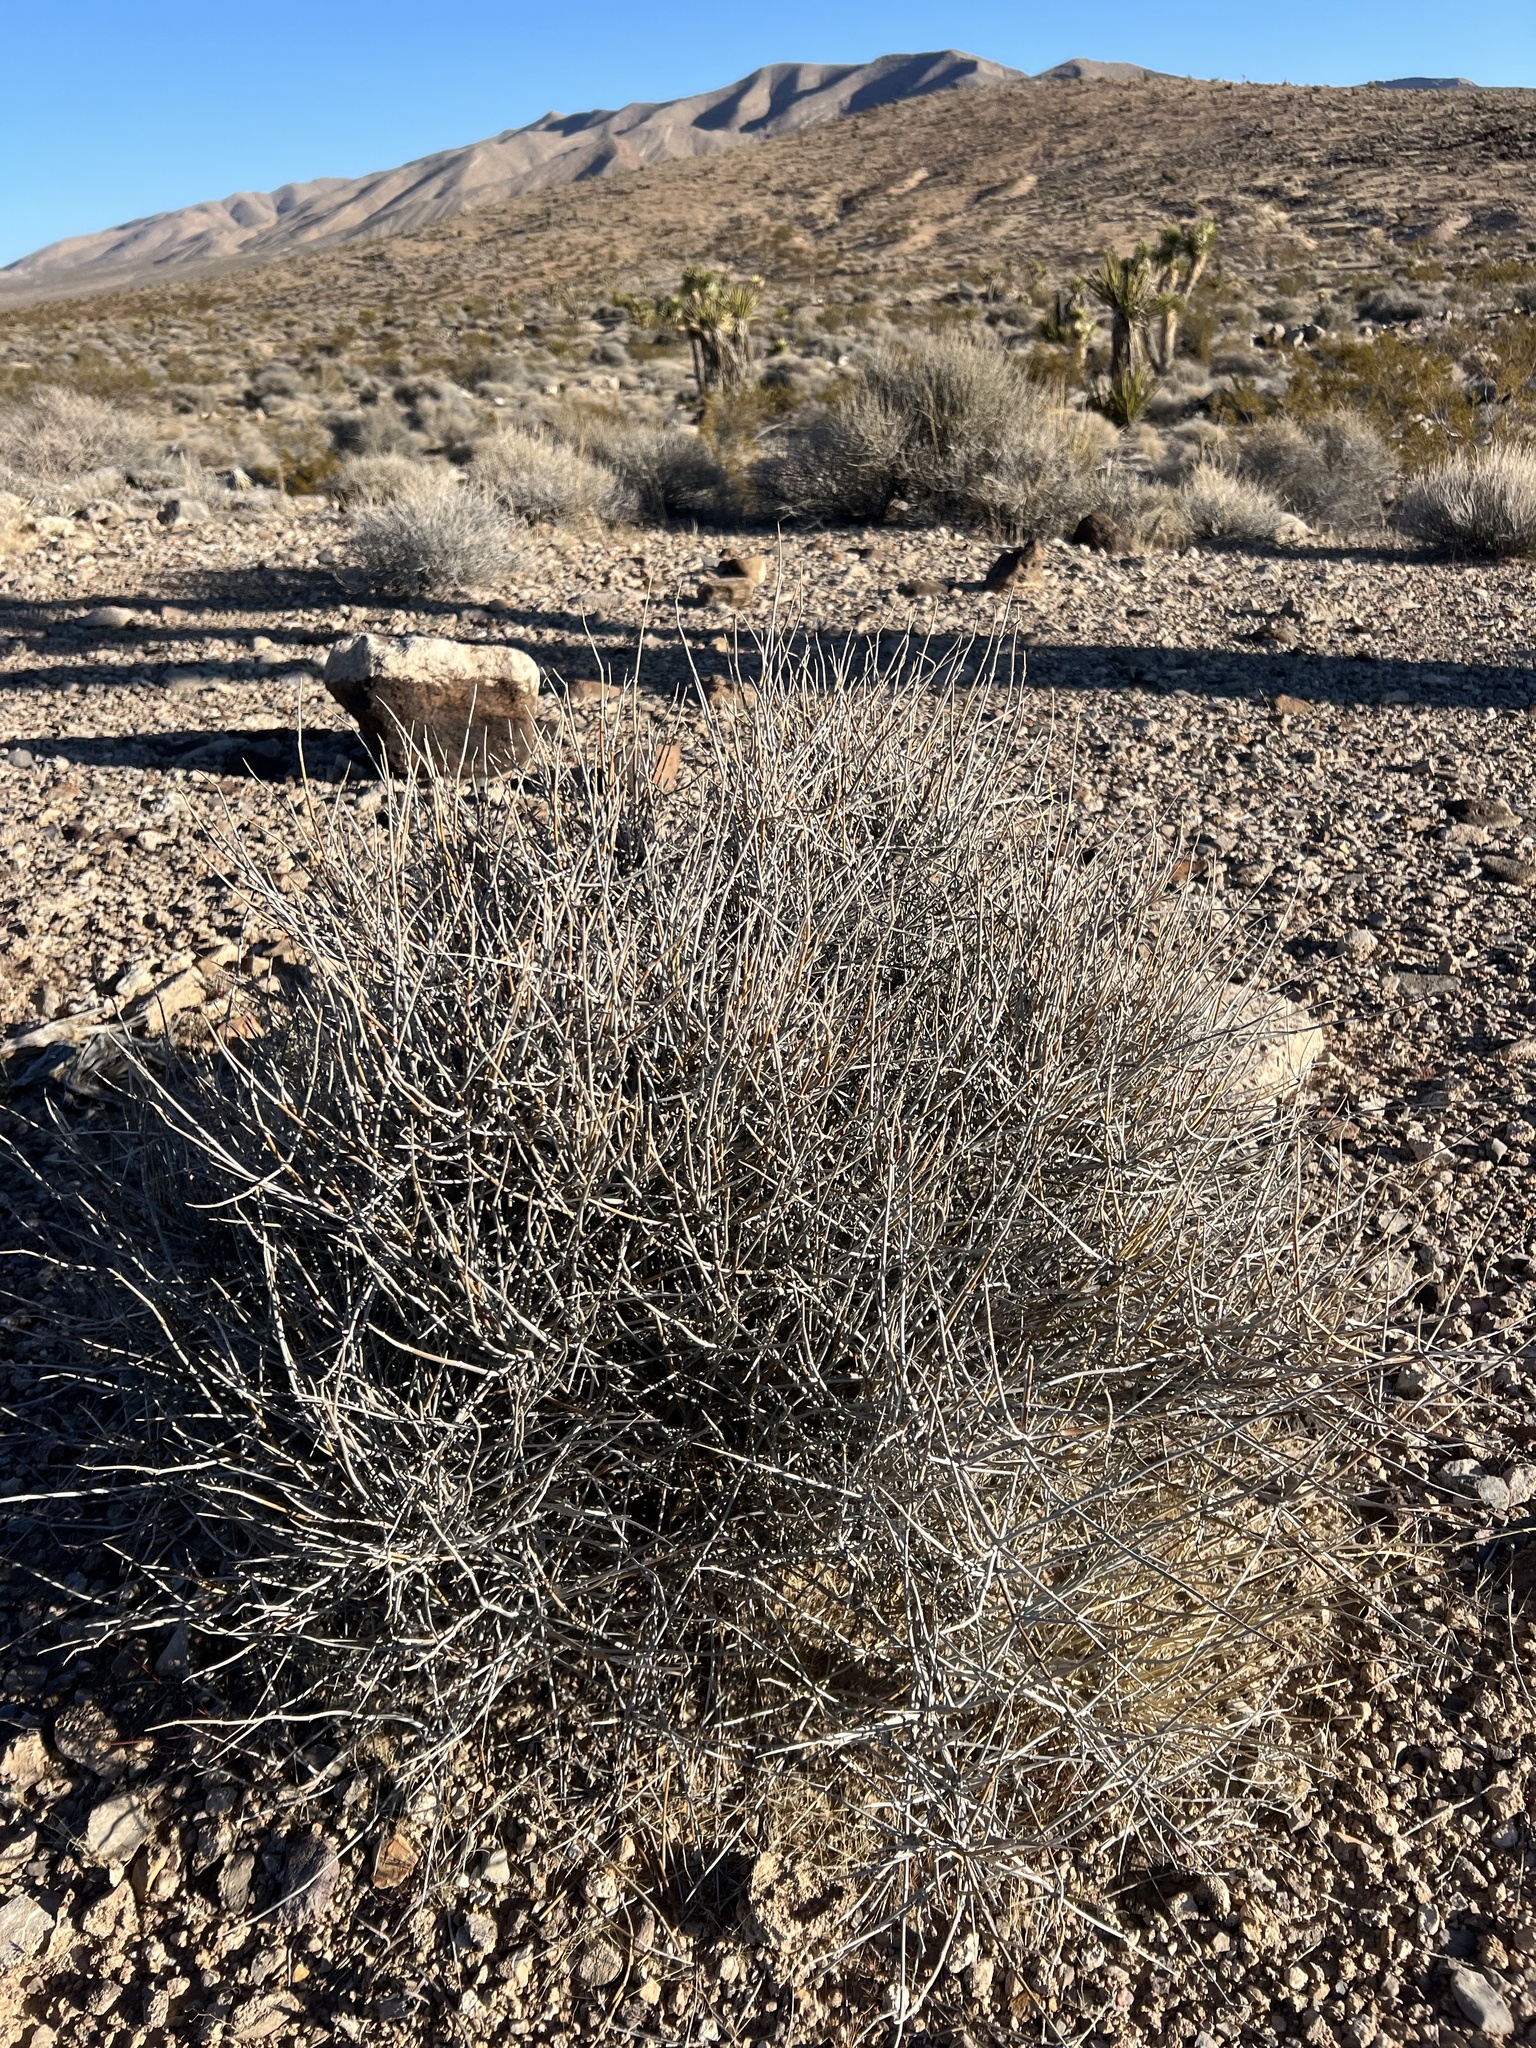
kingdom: Plantae
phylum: Tracheophyta
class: Gnetopsida
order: Ephedrales
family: Ephedraceae
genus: Ephedra
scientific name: Ephedra nevadensis
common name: Gray ephedra
